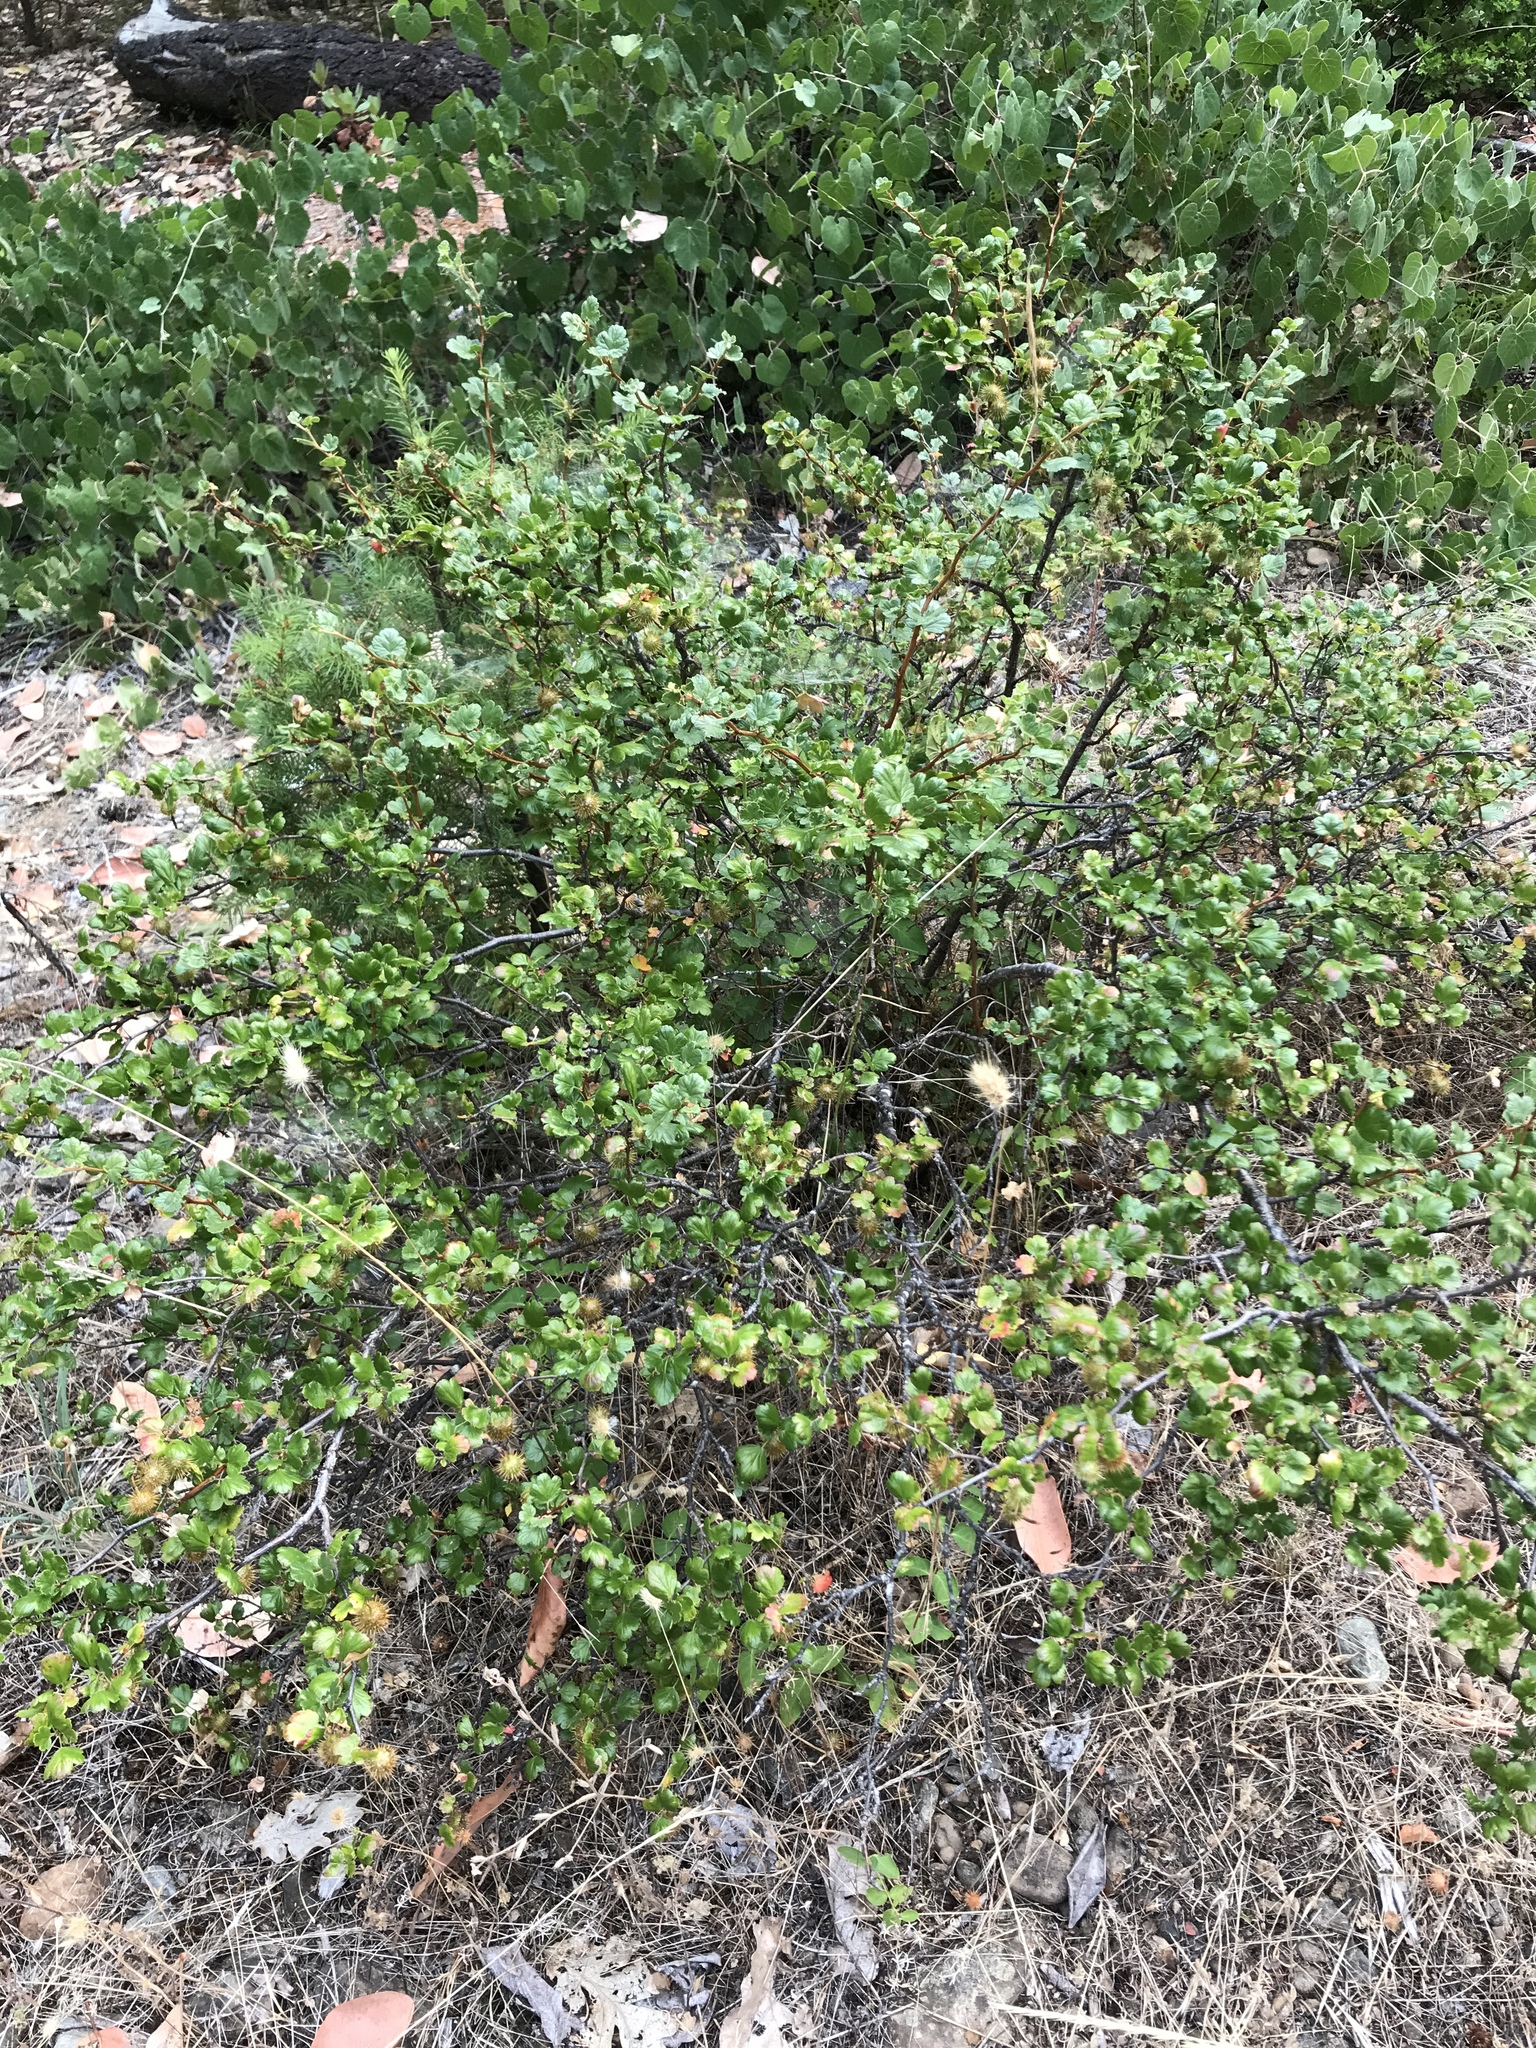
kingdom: Plantae
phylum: Tracheophyta
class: Magnoliopsida
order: Saxifragales
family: Grossulariaceae
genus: Ribes
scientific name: Ribes roezlii
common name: Sierra gooseberry
